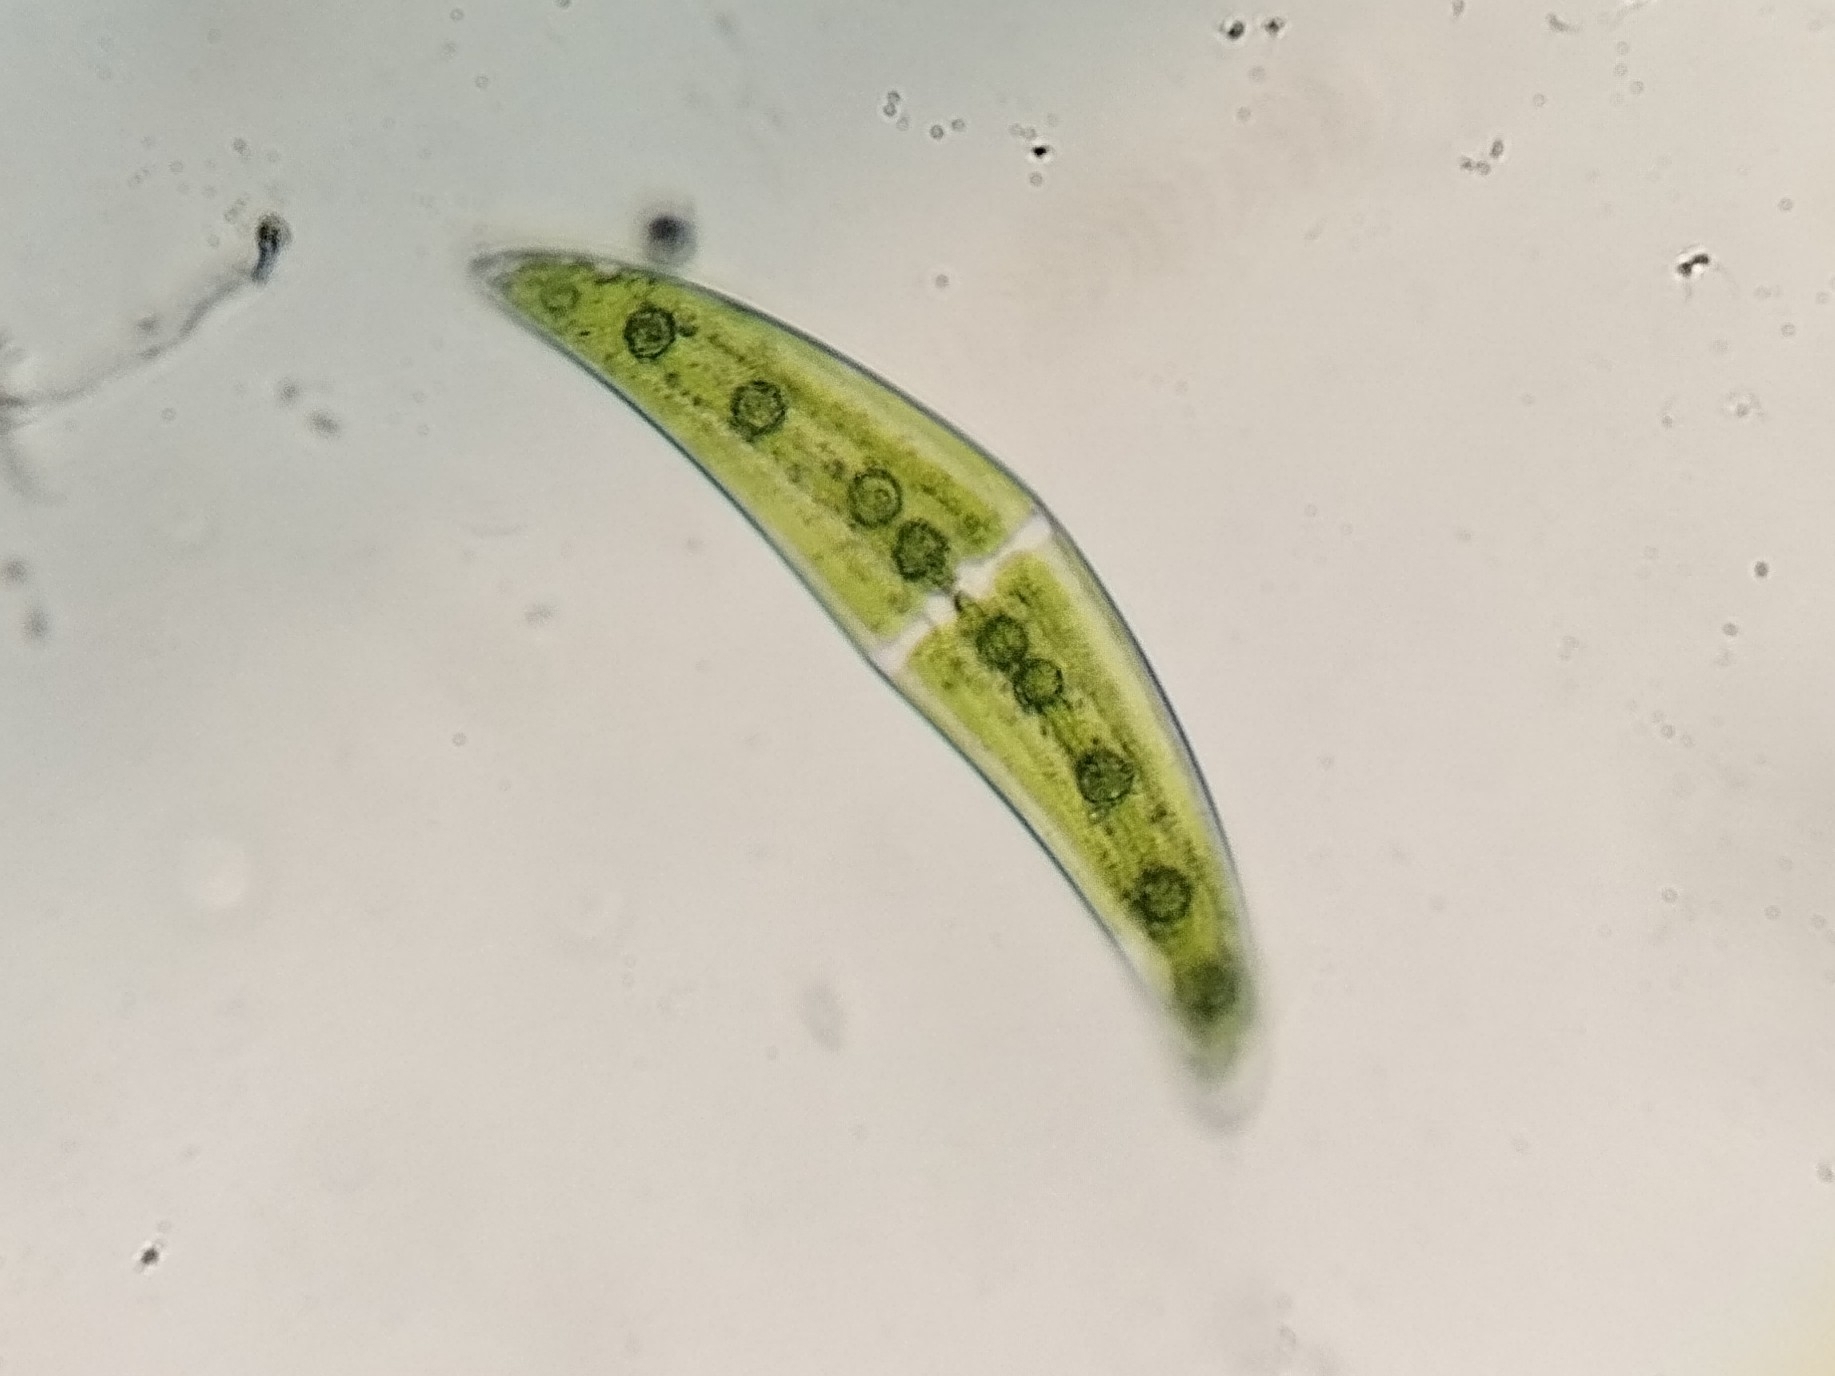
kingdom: Plantae
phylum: Charophyta
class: Zygnematophyceae
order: Zygnematales
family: Closteriaceae
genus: Closterium
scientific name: Closterium moniliferum
